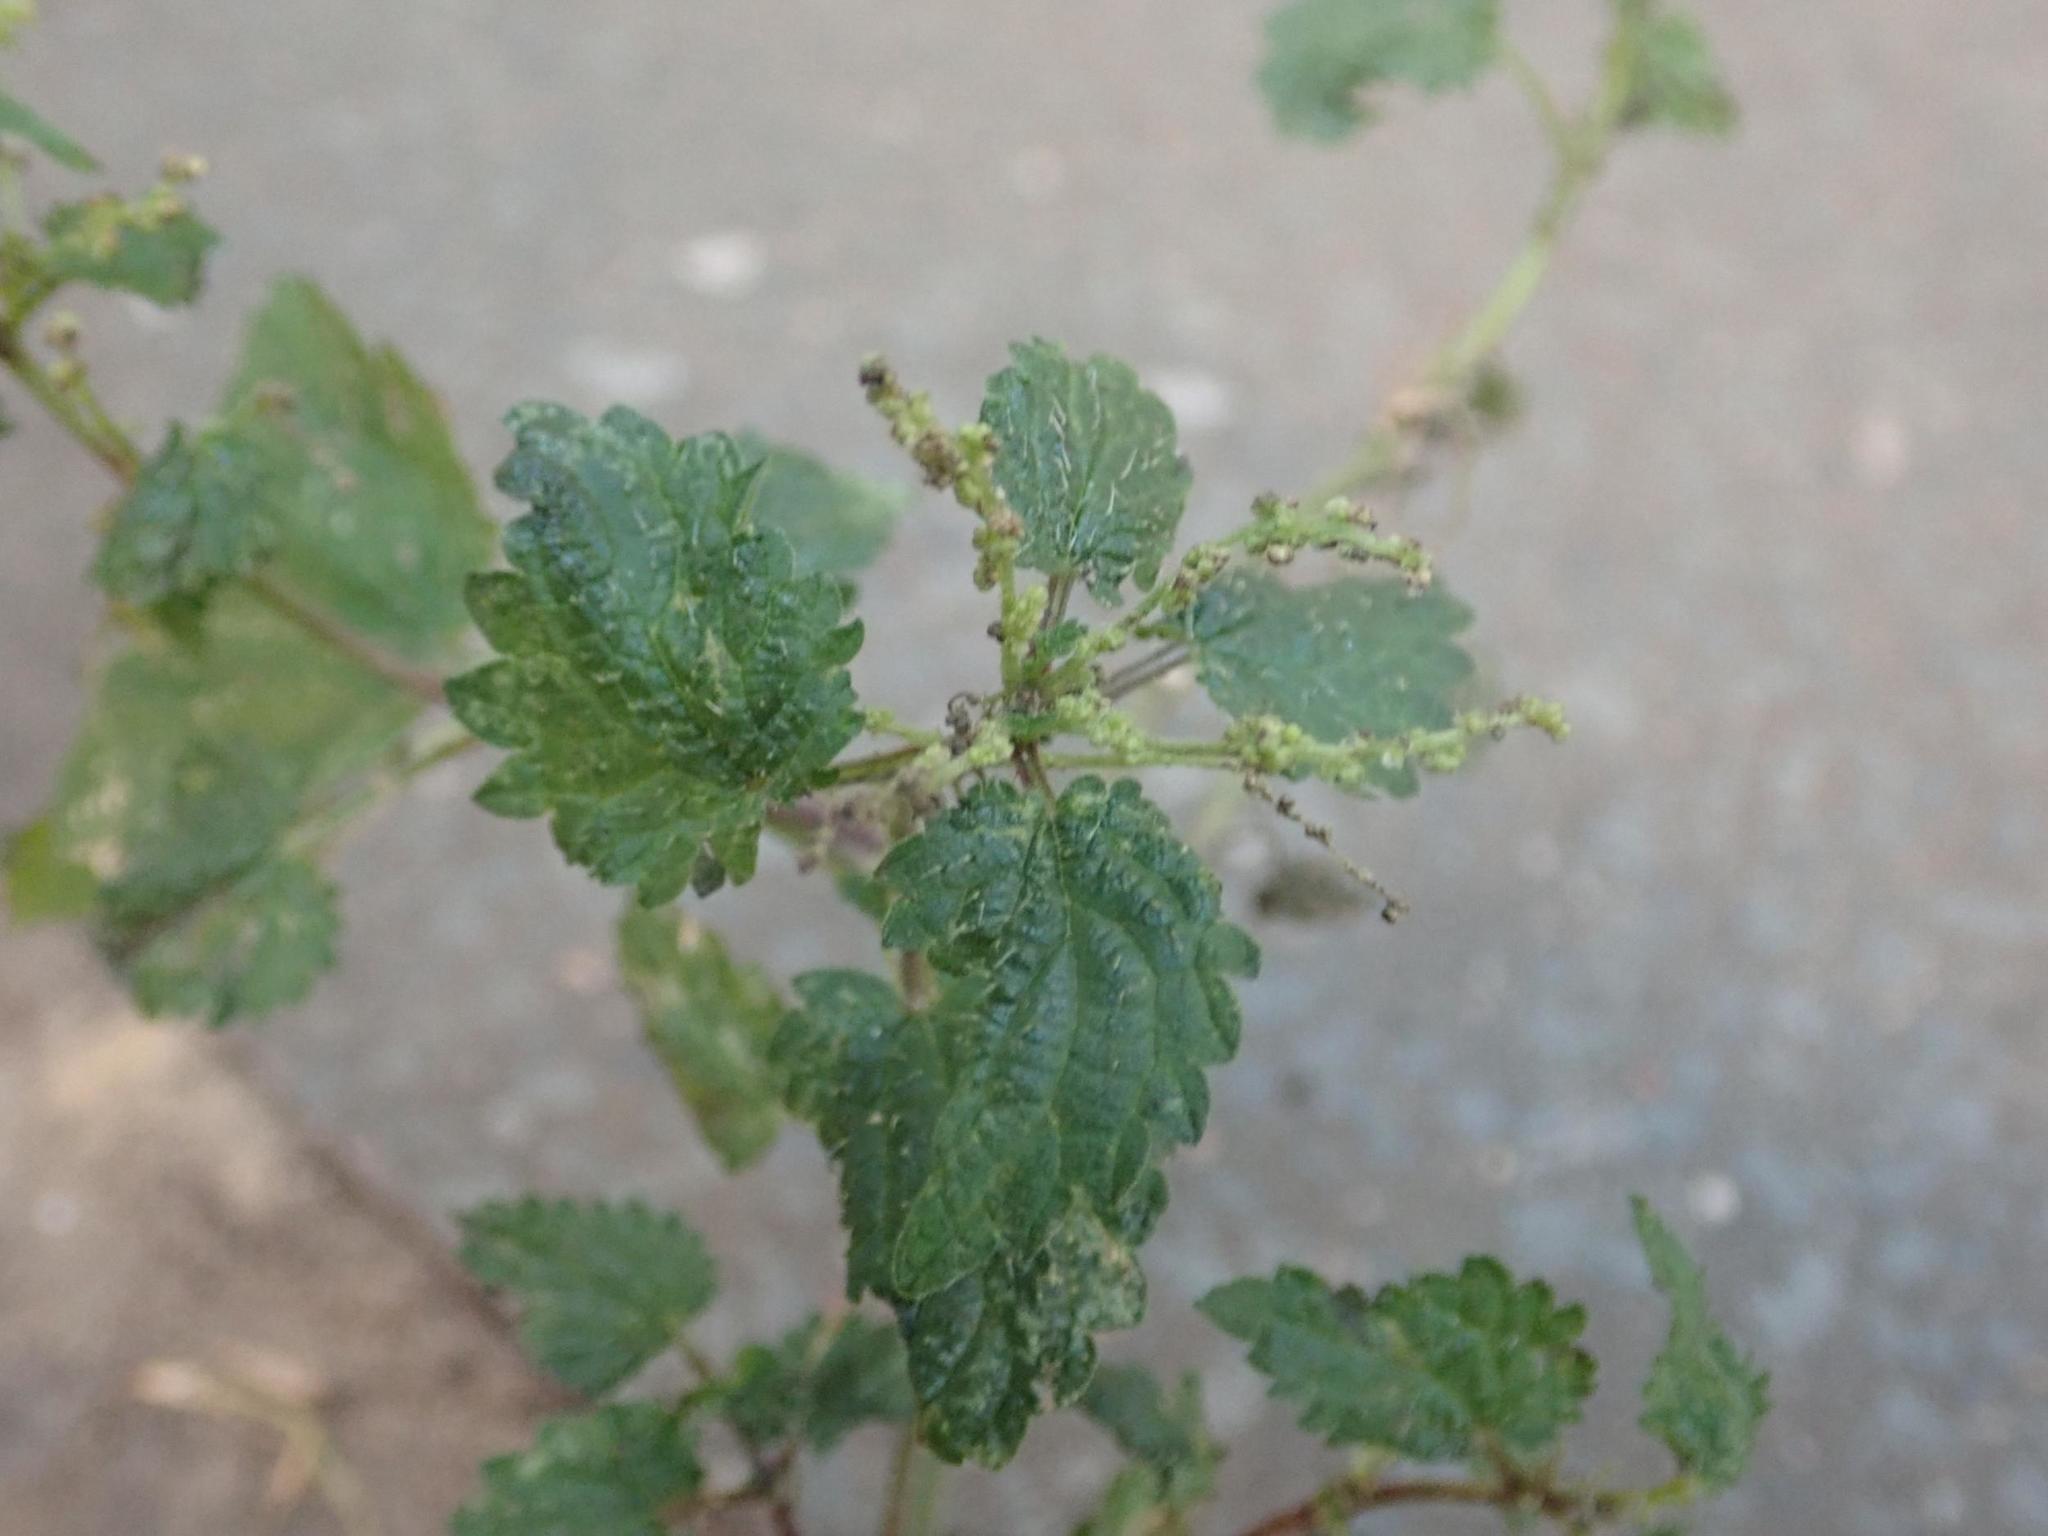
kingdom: Plantae
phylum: Tracheophyta
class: Magnoliopsida
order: Rosales
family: Urticaceae
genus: Urtica
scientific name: Urtica dioica
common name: Common nettle
